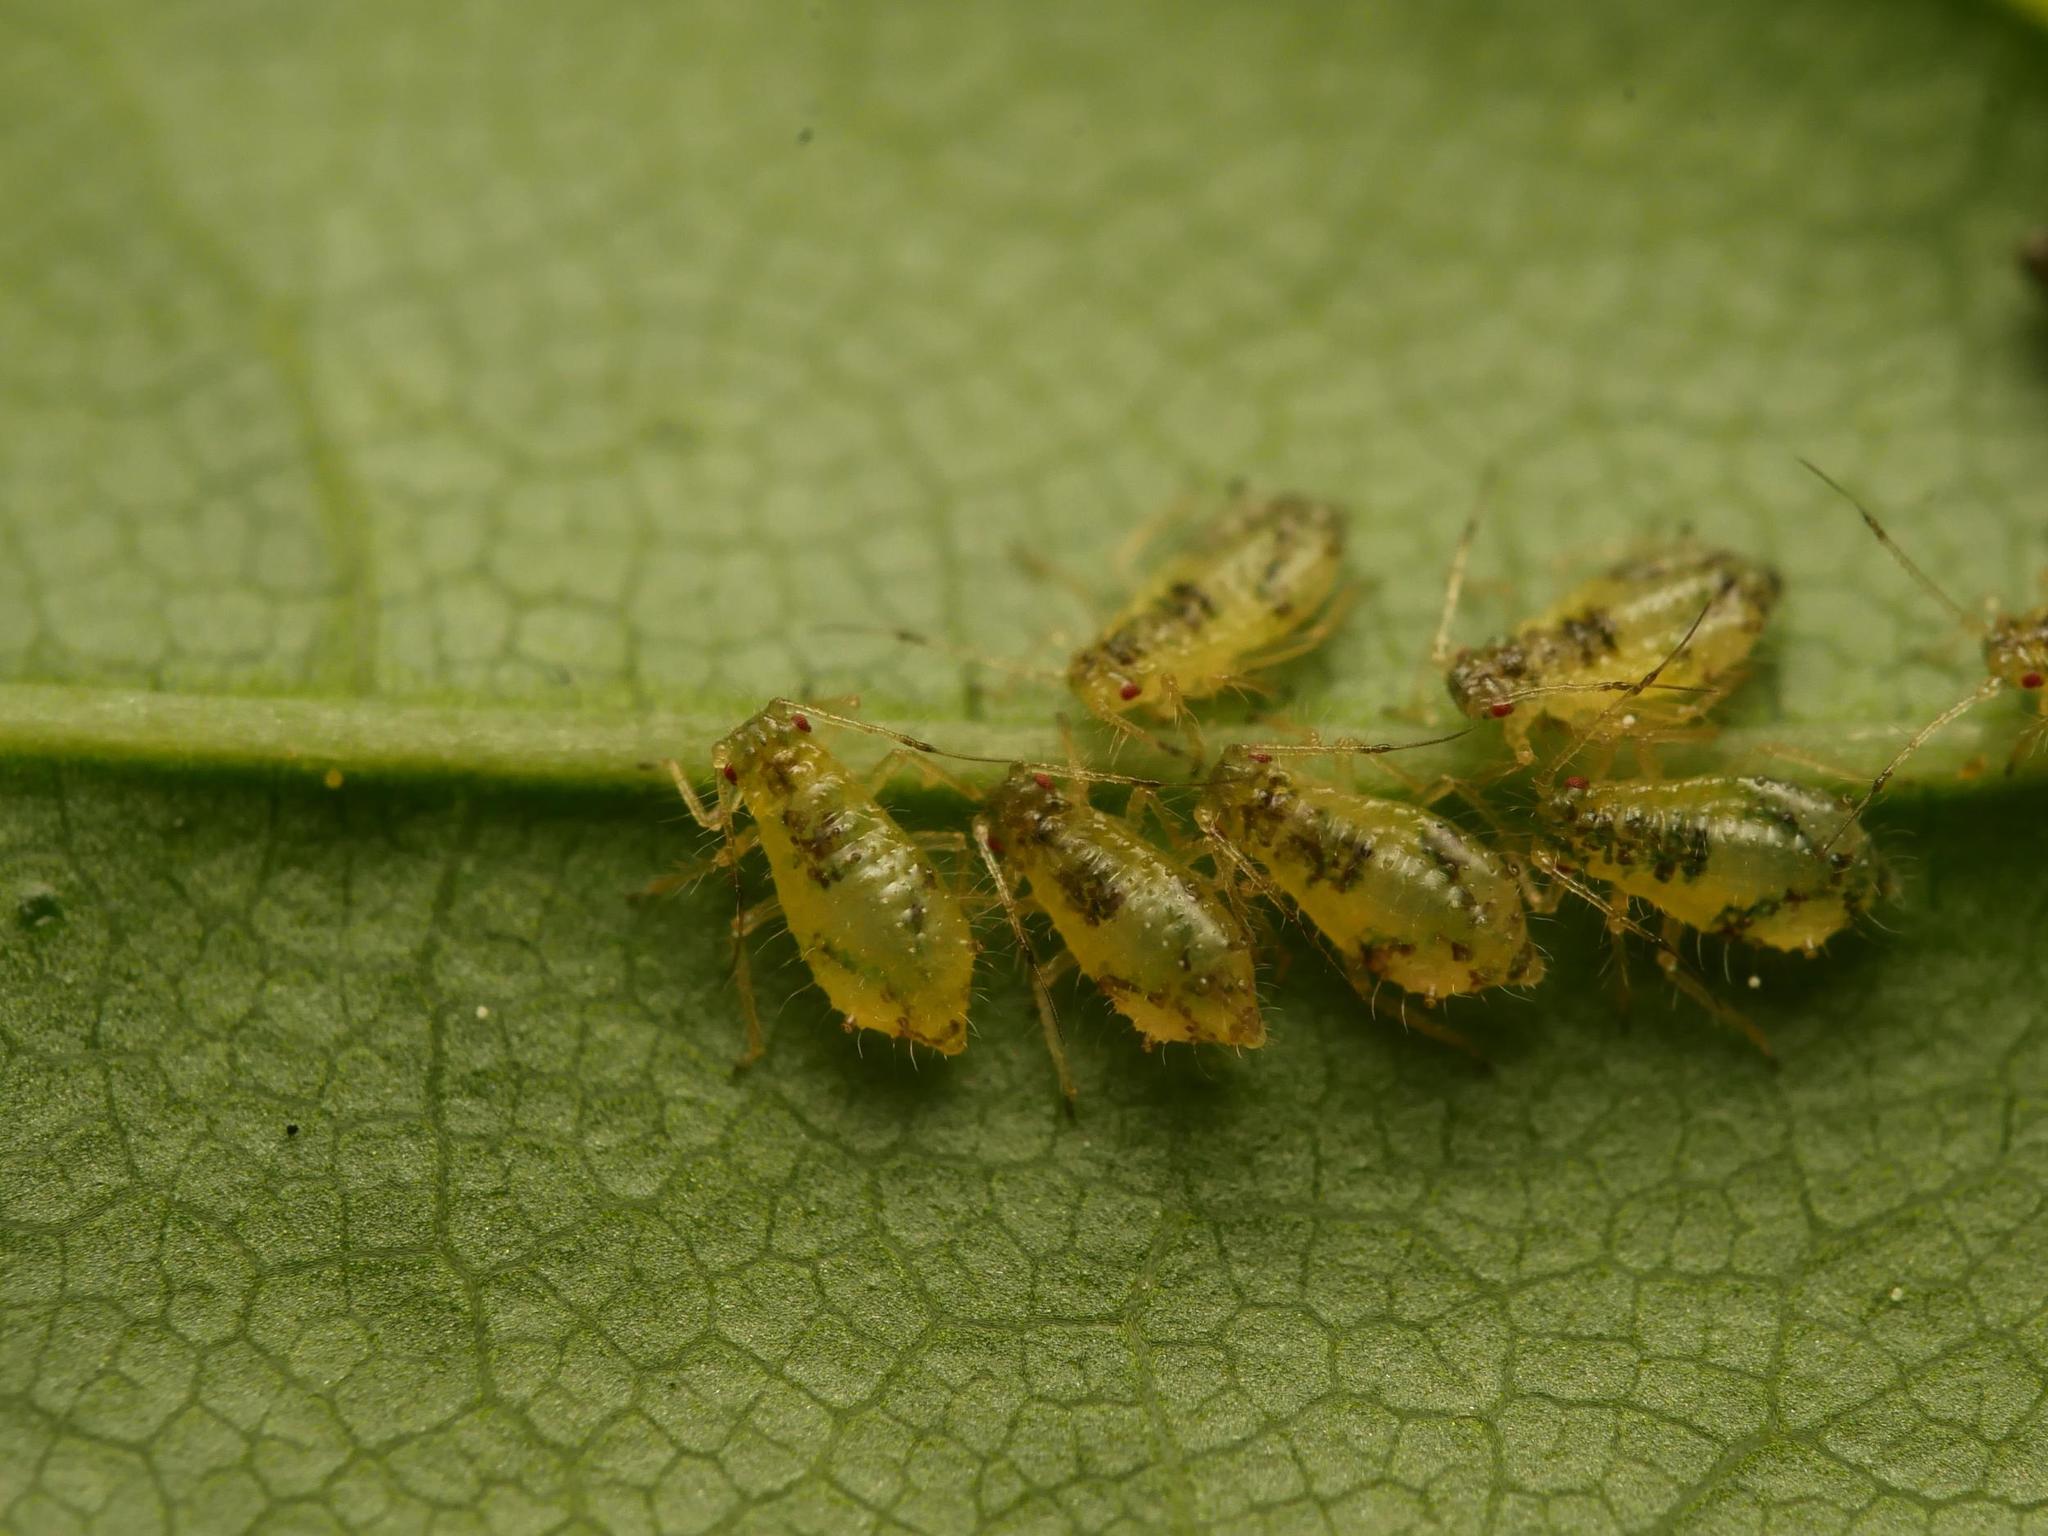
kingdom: Animalia
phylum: Arthropoda
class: Insecta
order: Hemiptera
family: Aphididae
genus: Periphyllus
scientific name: Periphyllus lyropictus
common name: Norway maple aphid
